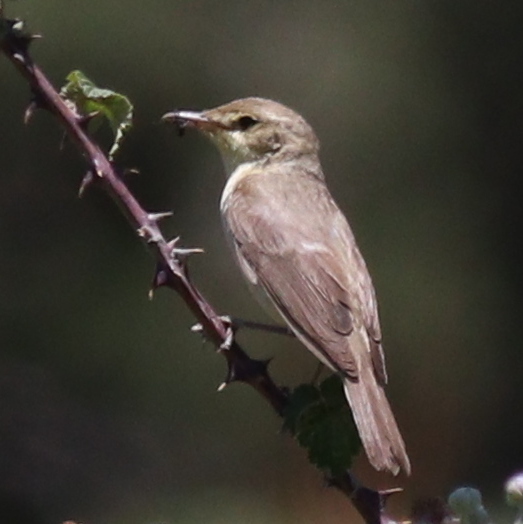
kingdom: Animalia
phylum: Chordata
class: Aves
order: Passeriformes
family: Acrocephalidae
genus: Hippolais
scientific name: Hippolais polyglotta
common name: Melodious warbler
